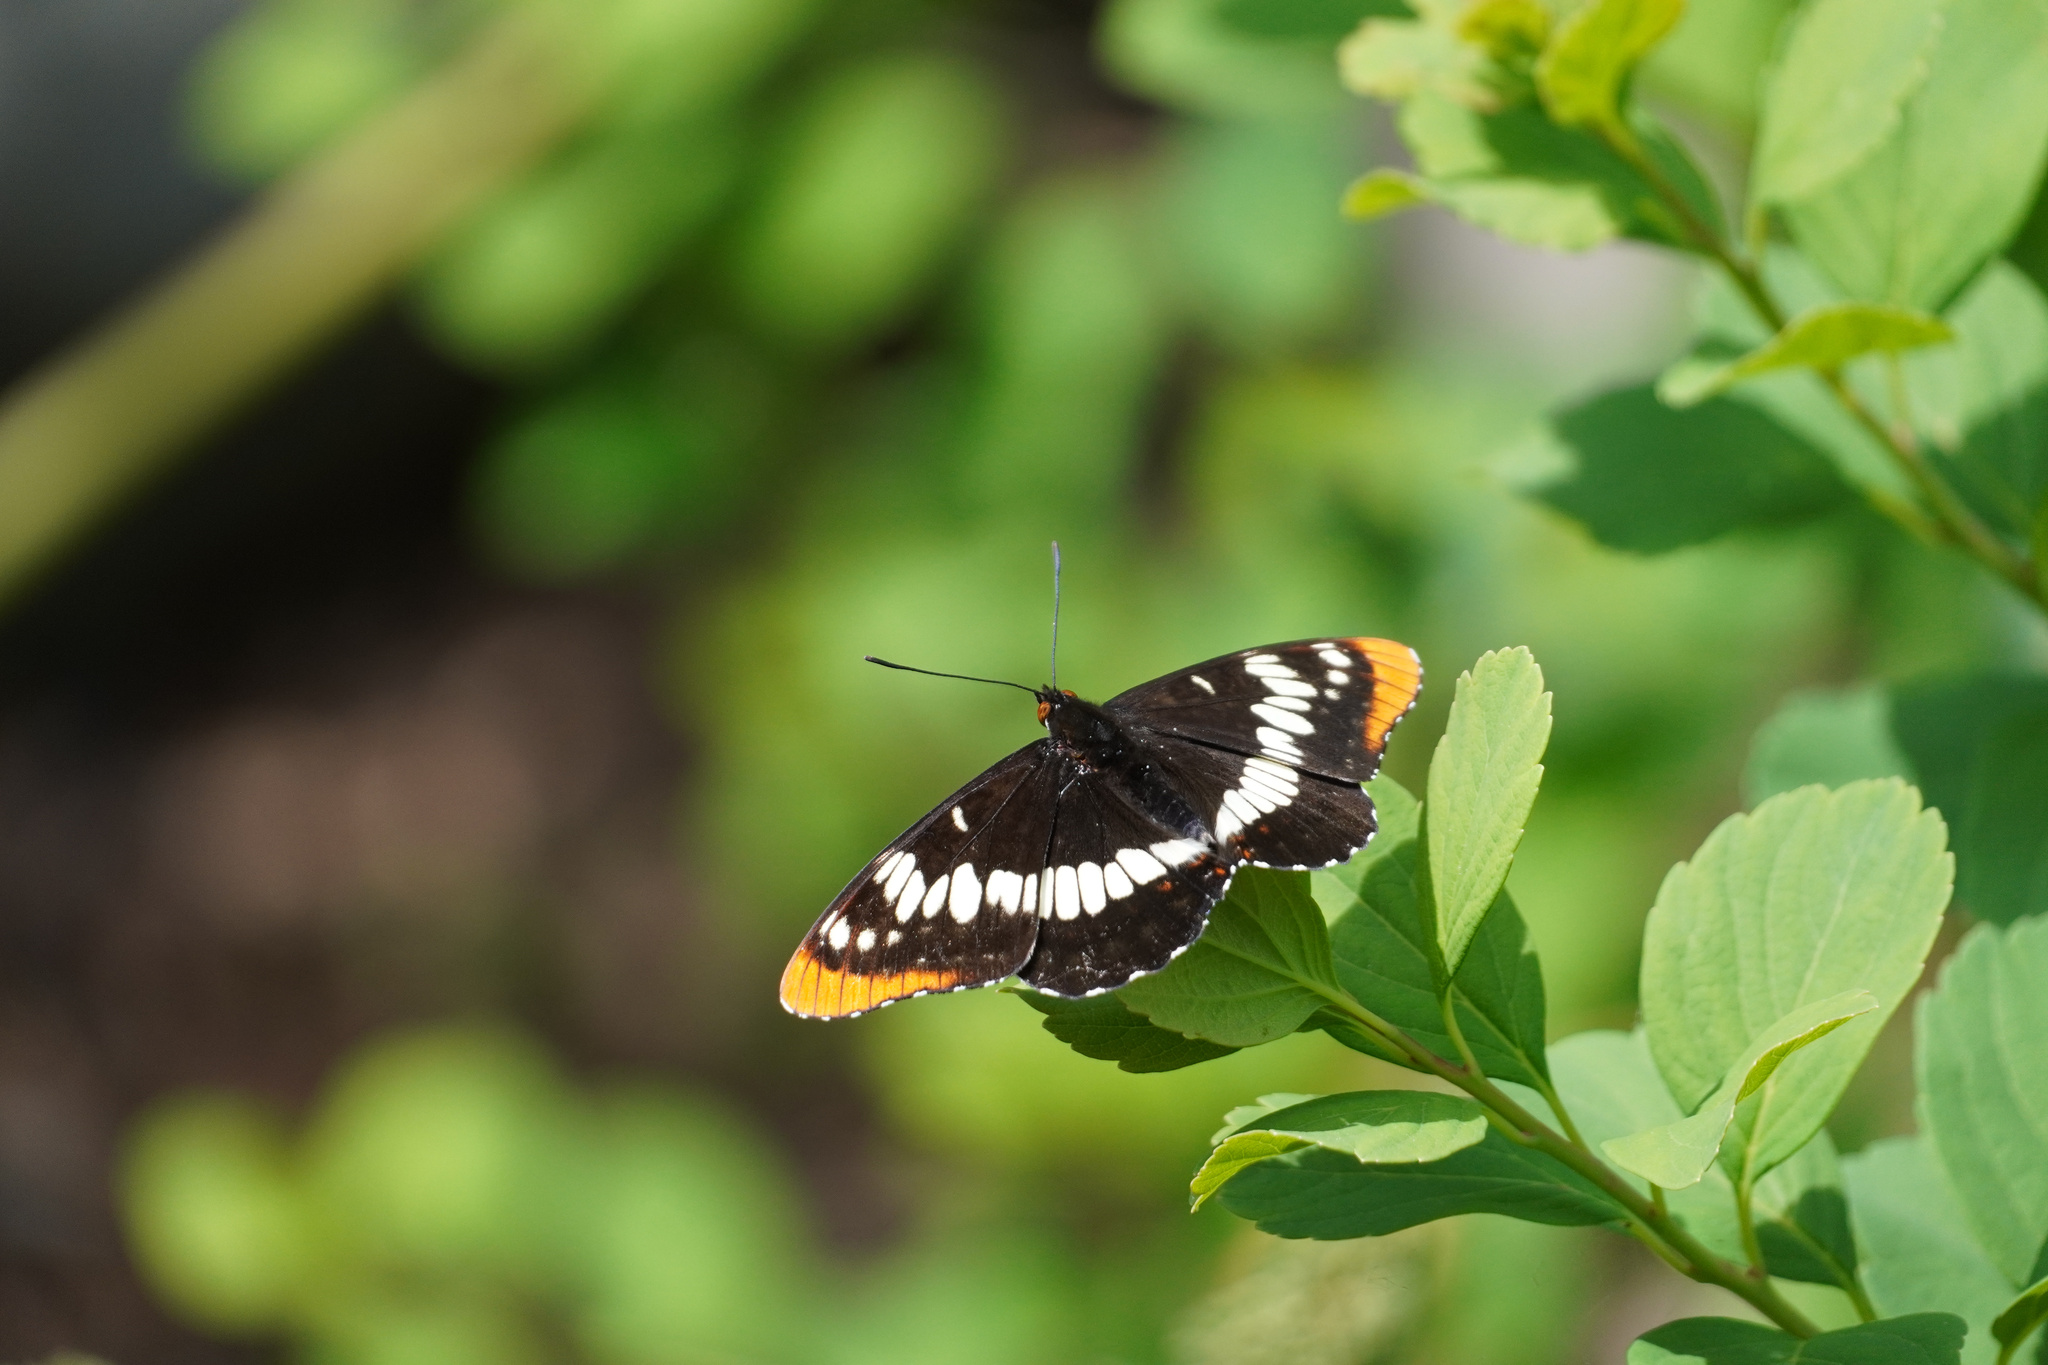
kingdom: Animalia
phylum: Arthropoda
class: Insecta
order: Lepidoptera
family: Nymphalidae
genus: Limenitis
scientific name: Limenitis lorquini
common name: Lorquin's admiral
